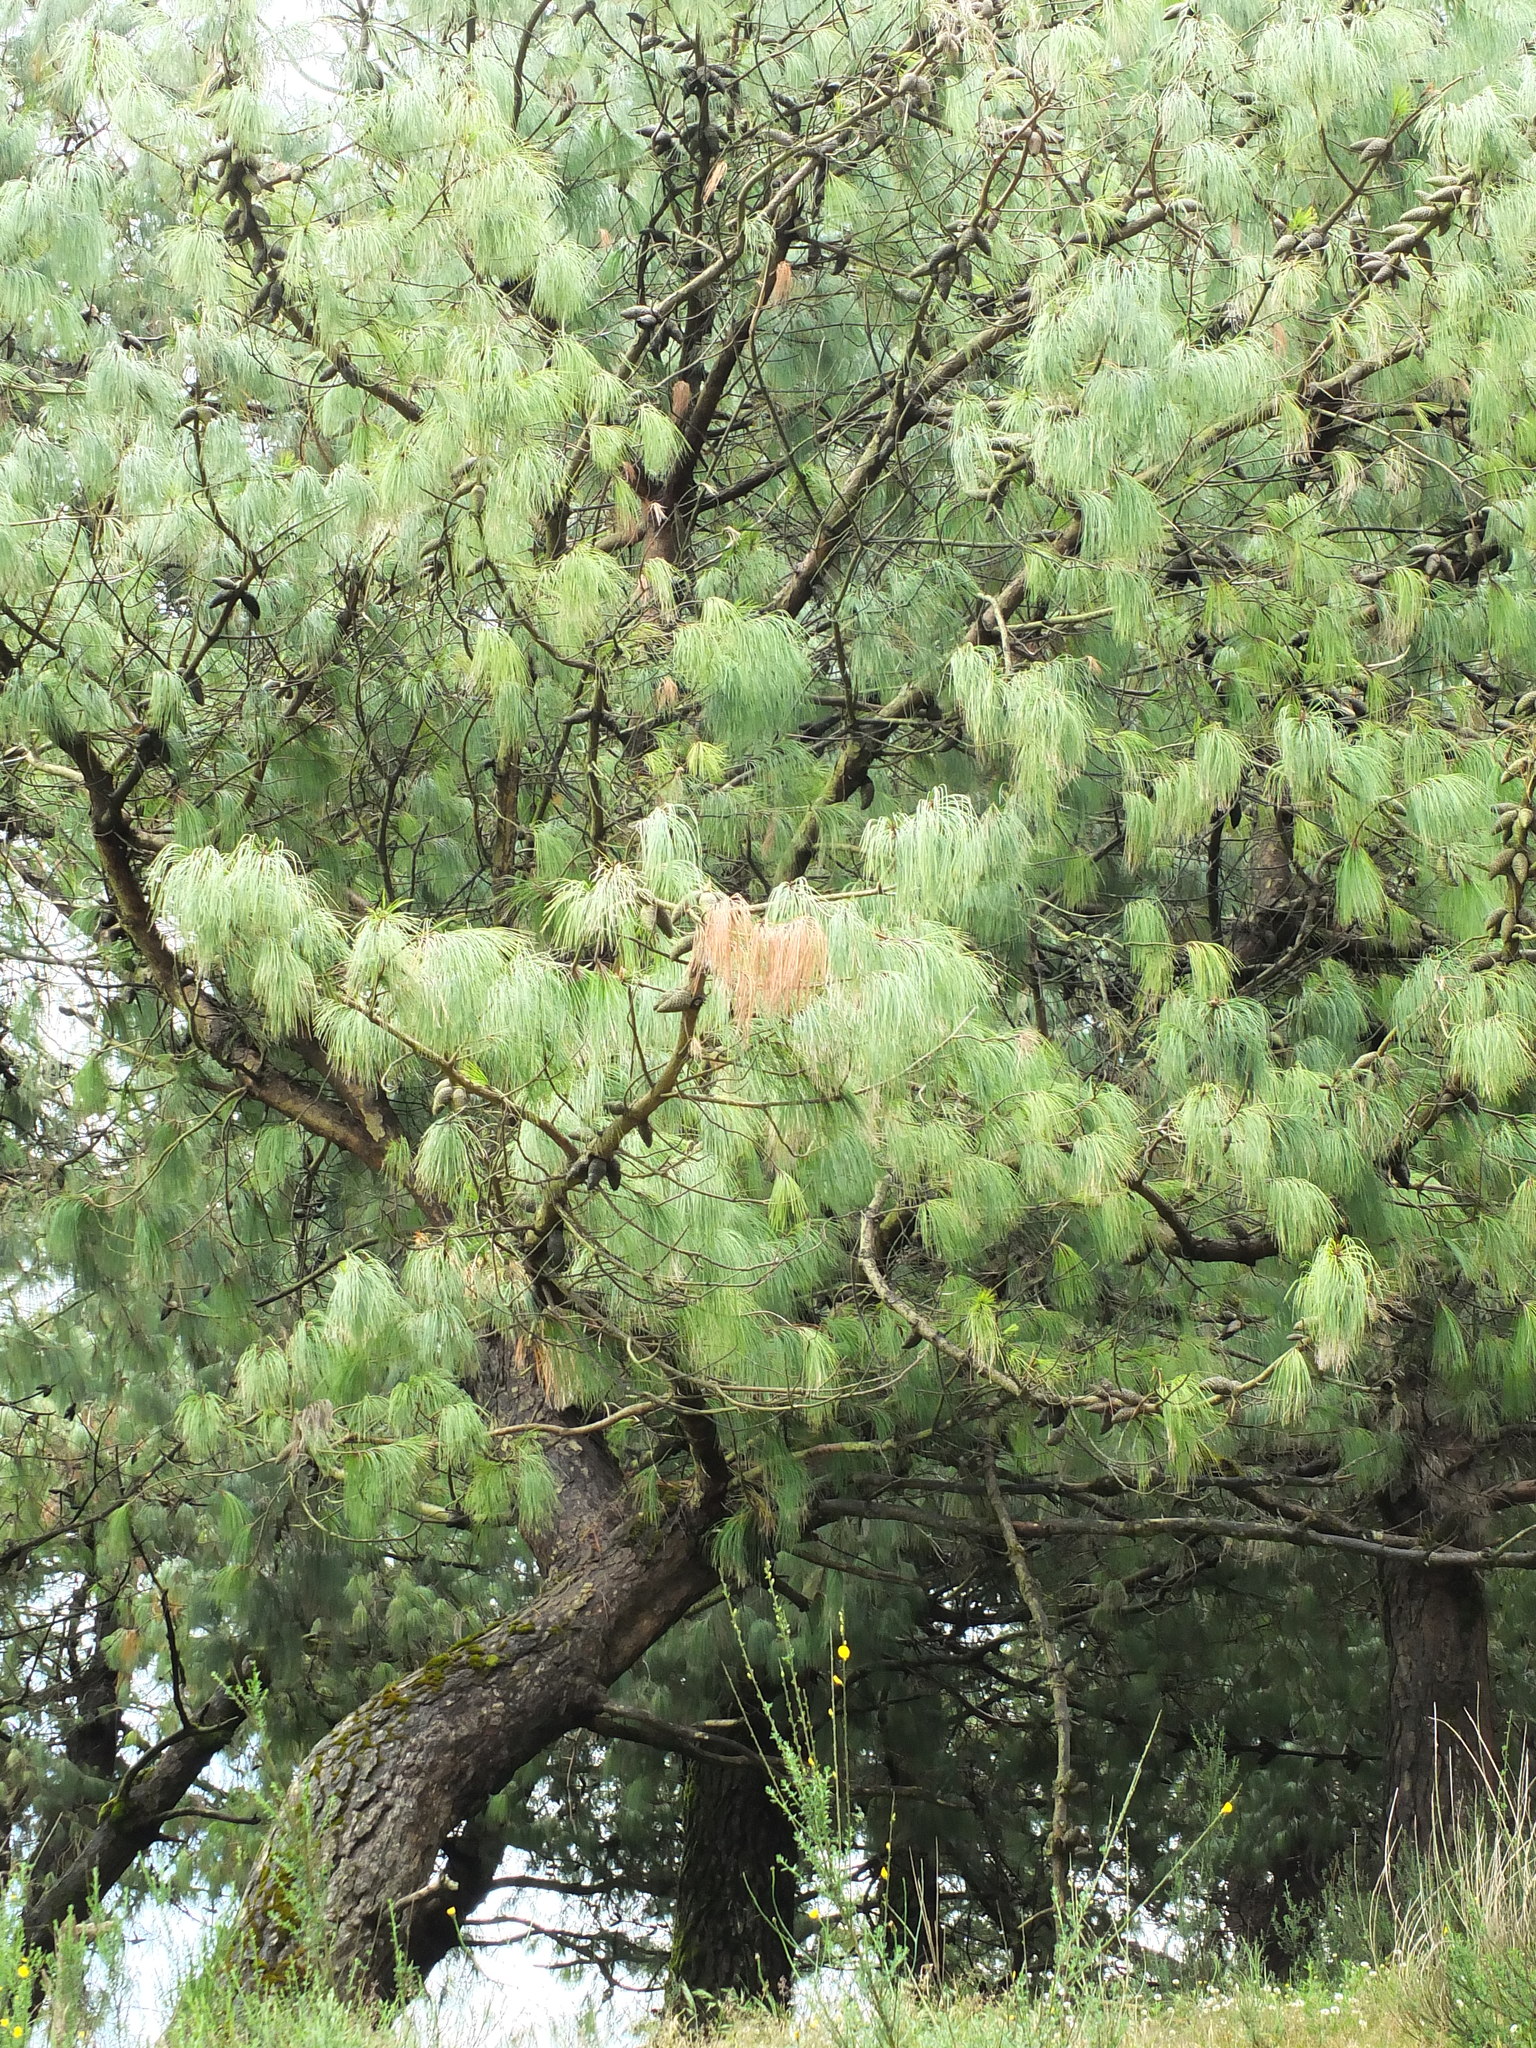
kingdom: Plantae
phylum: Tracheophyta
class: Pinopsida
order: Pinales
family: Pinaceae
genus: Pinus
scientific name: Pinus patula
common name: Mexican weeping pine
